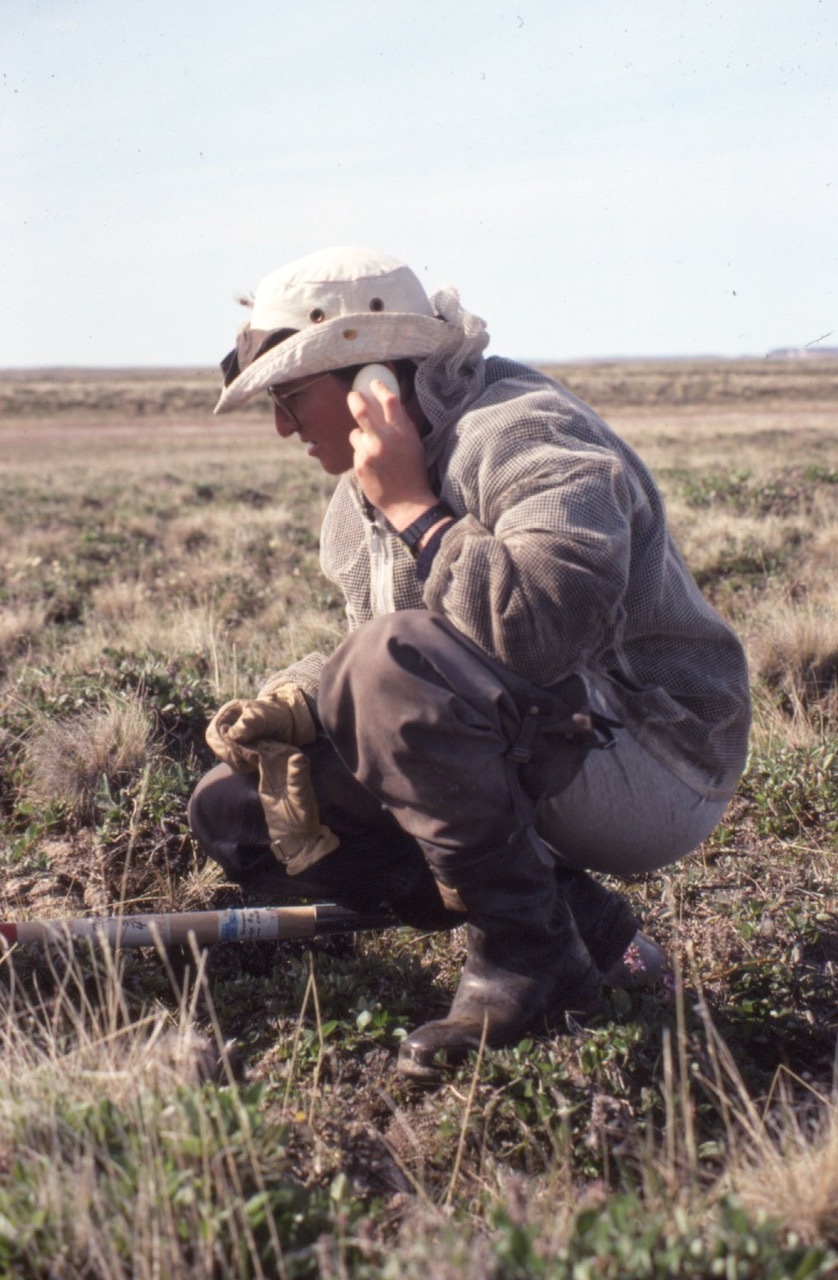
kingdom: Animalia
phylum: Chordata
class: Aves
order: Anseriformes
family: Anatidae
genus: Anser
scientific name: Anser albifrons
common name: Greater white-fronted goose
